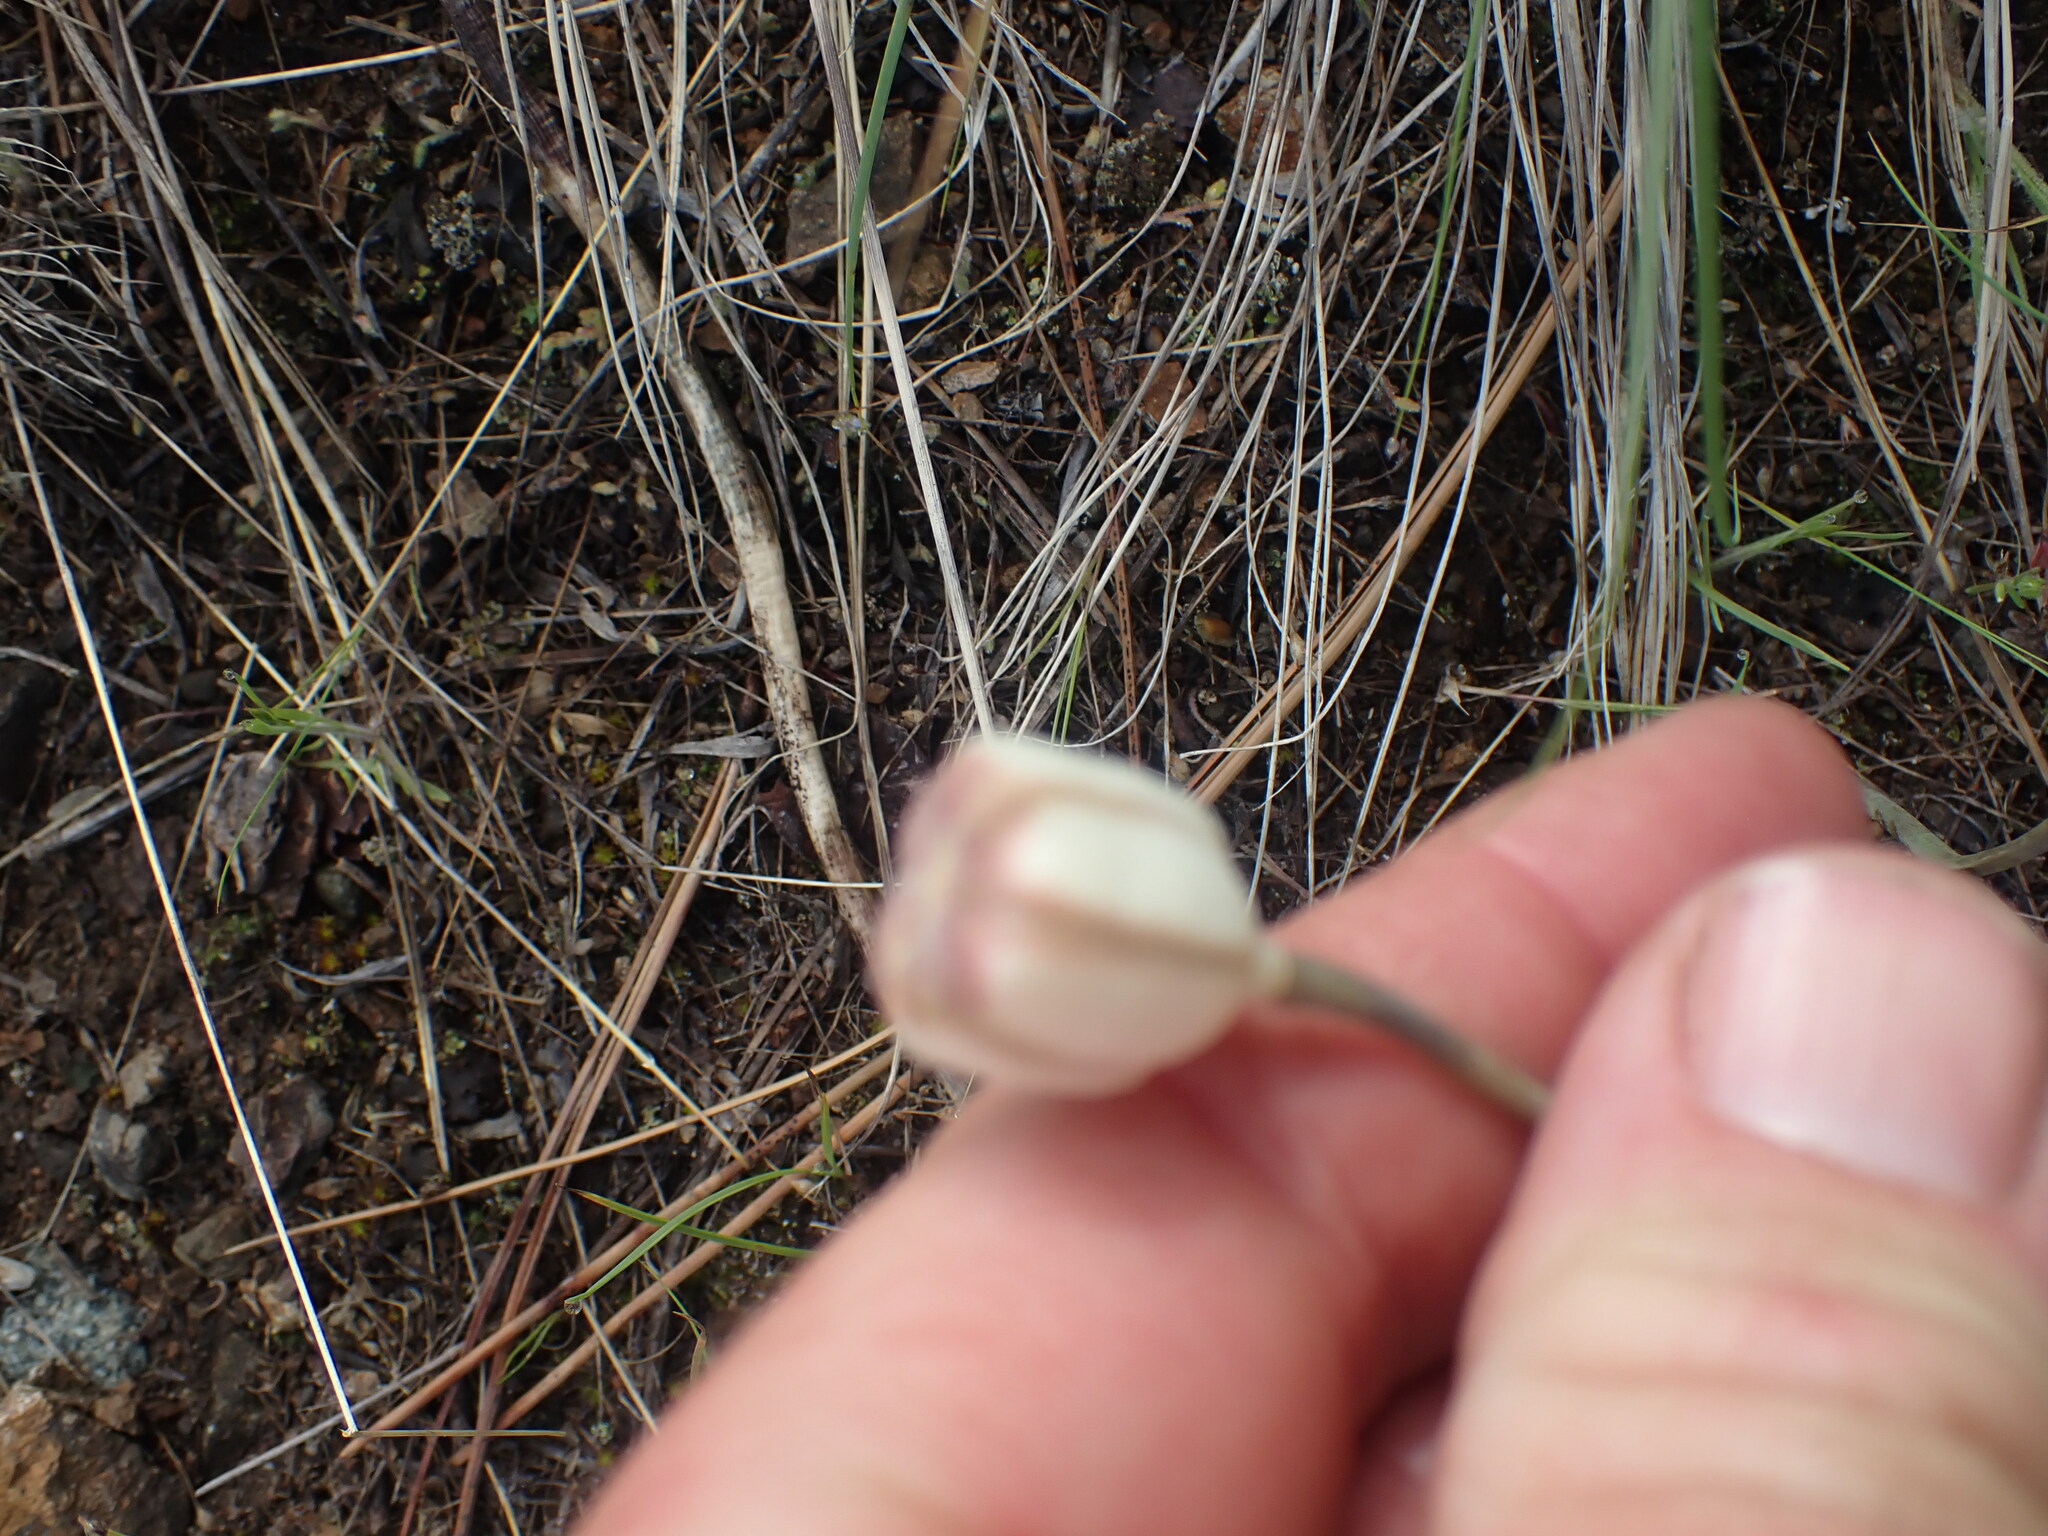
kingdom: Plantae
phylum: Tracheophyta
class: Liliopsida
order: Liliales
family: Liliaceae
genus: Fritillaria
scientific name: Fritillaria pudica
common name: Yellow fritillary
